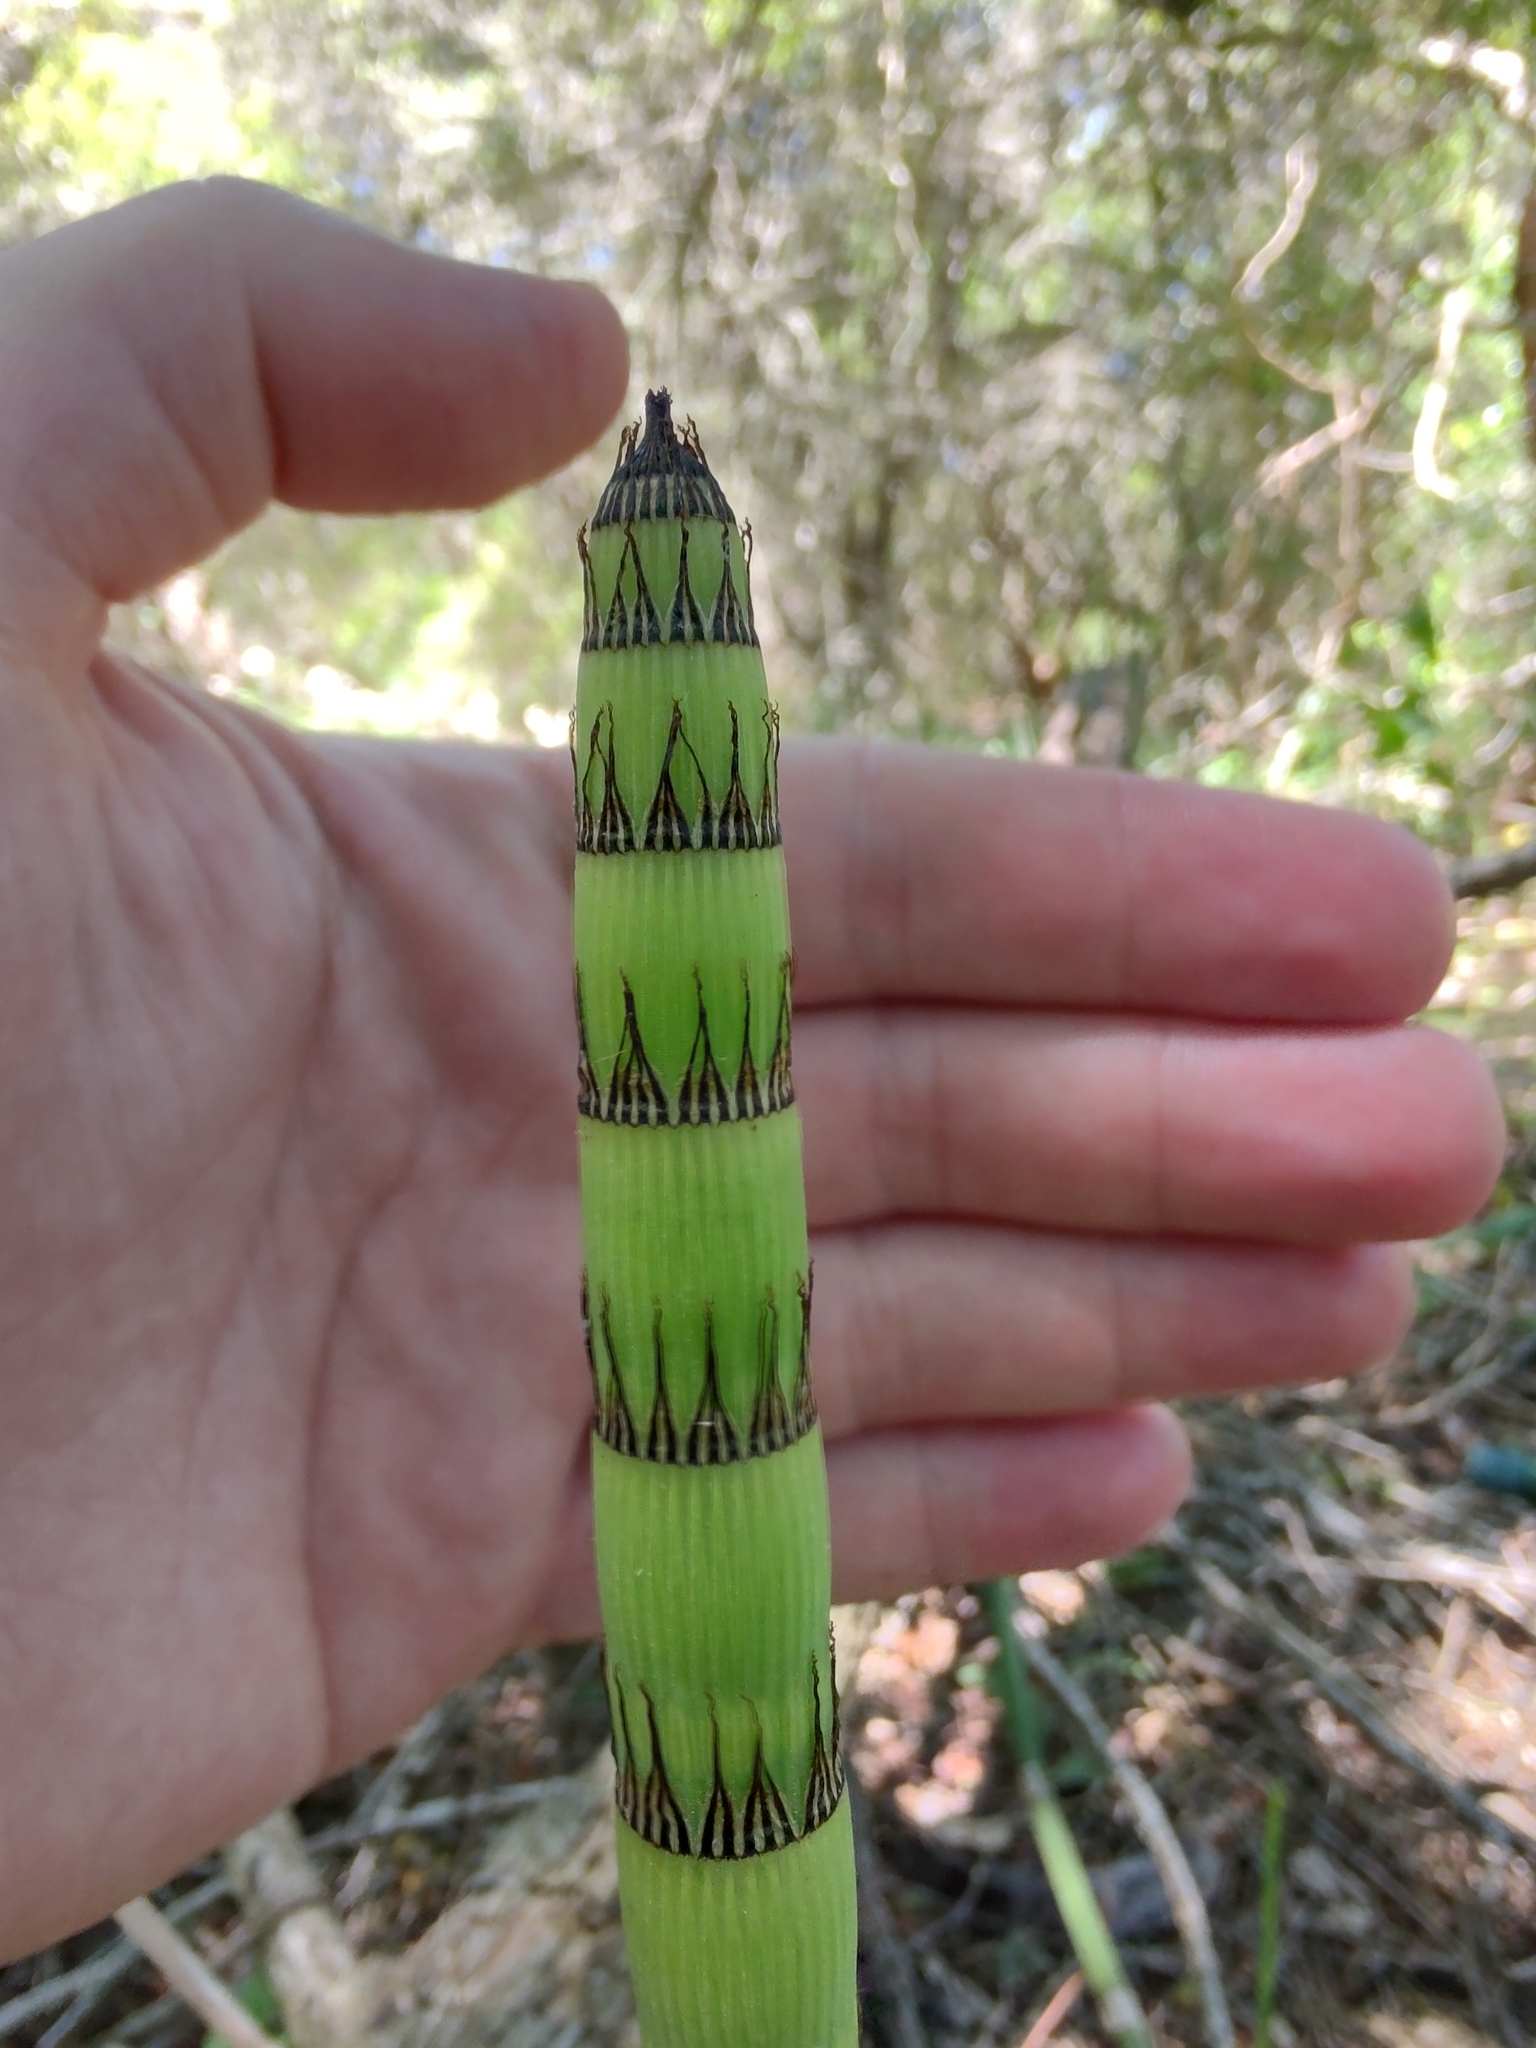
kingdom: Plantae
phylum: Tracheophyta
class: Polypodiopsida
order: Equisetales
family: Equisetaceae
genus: Equisetum
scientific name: Equisetum giganteum
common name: Giant horsetail
